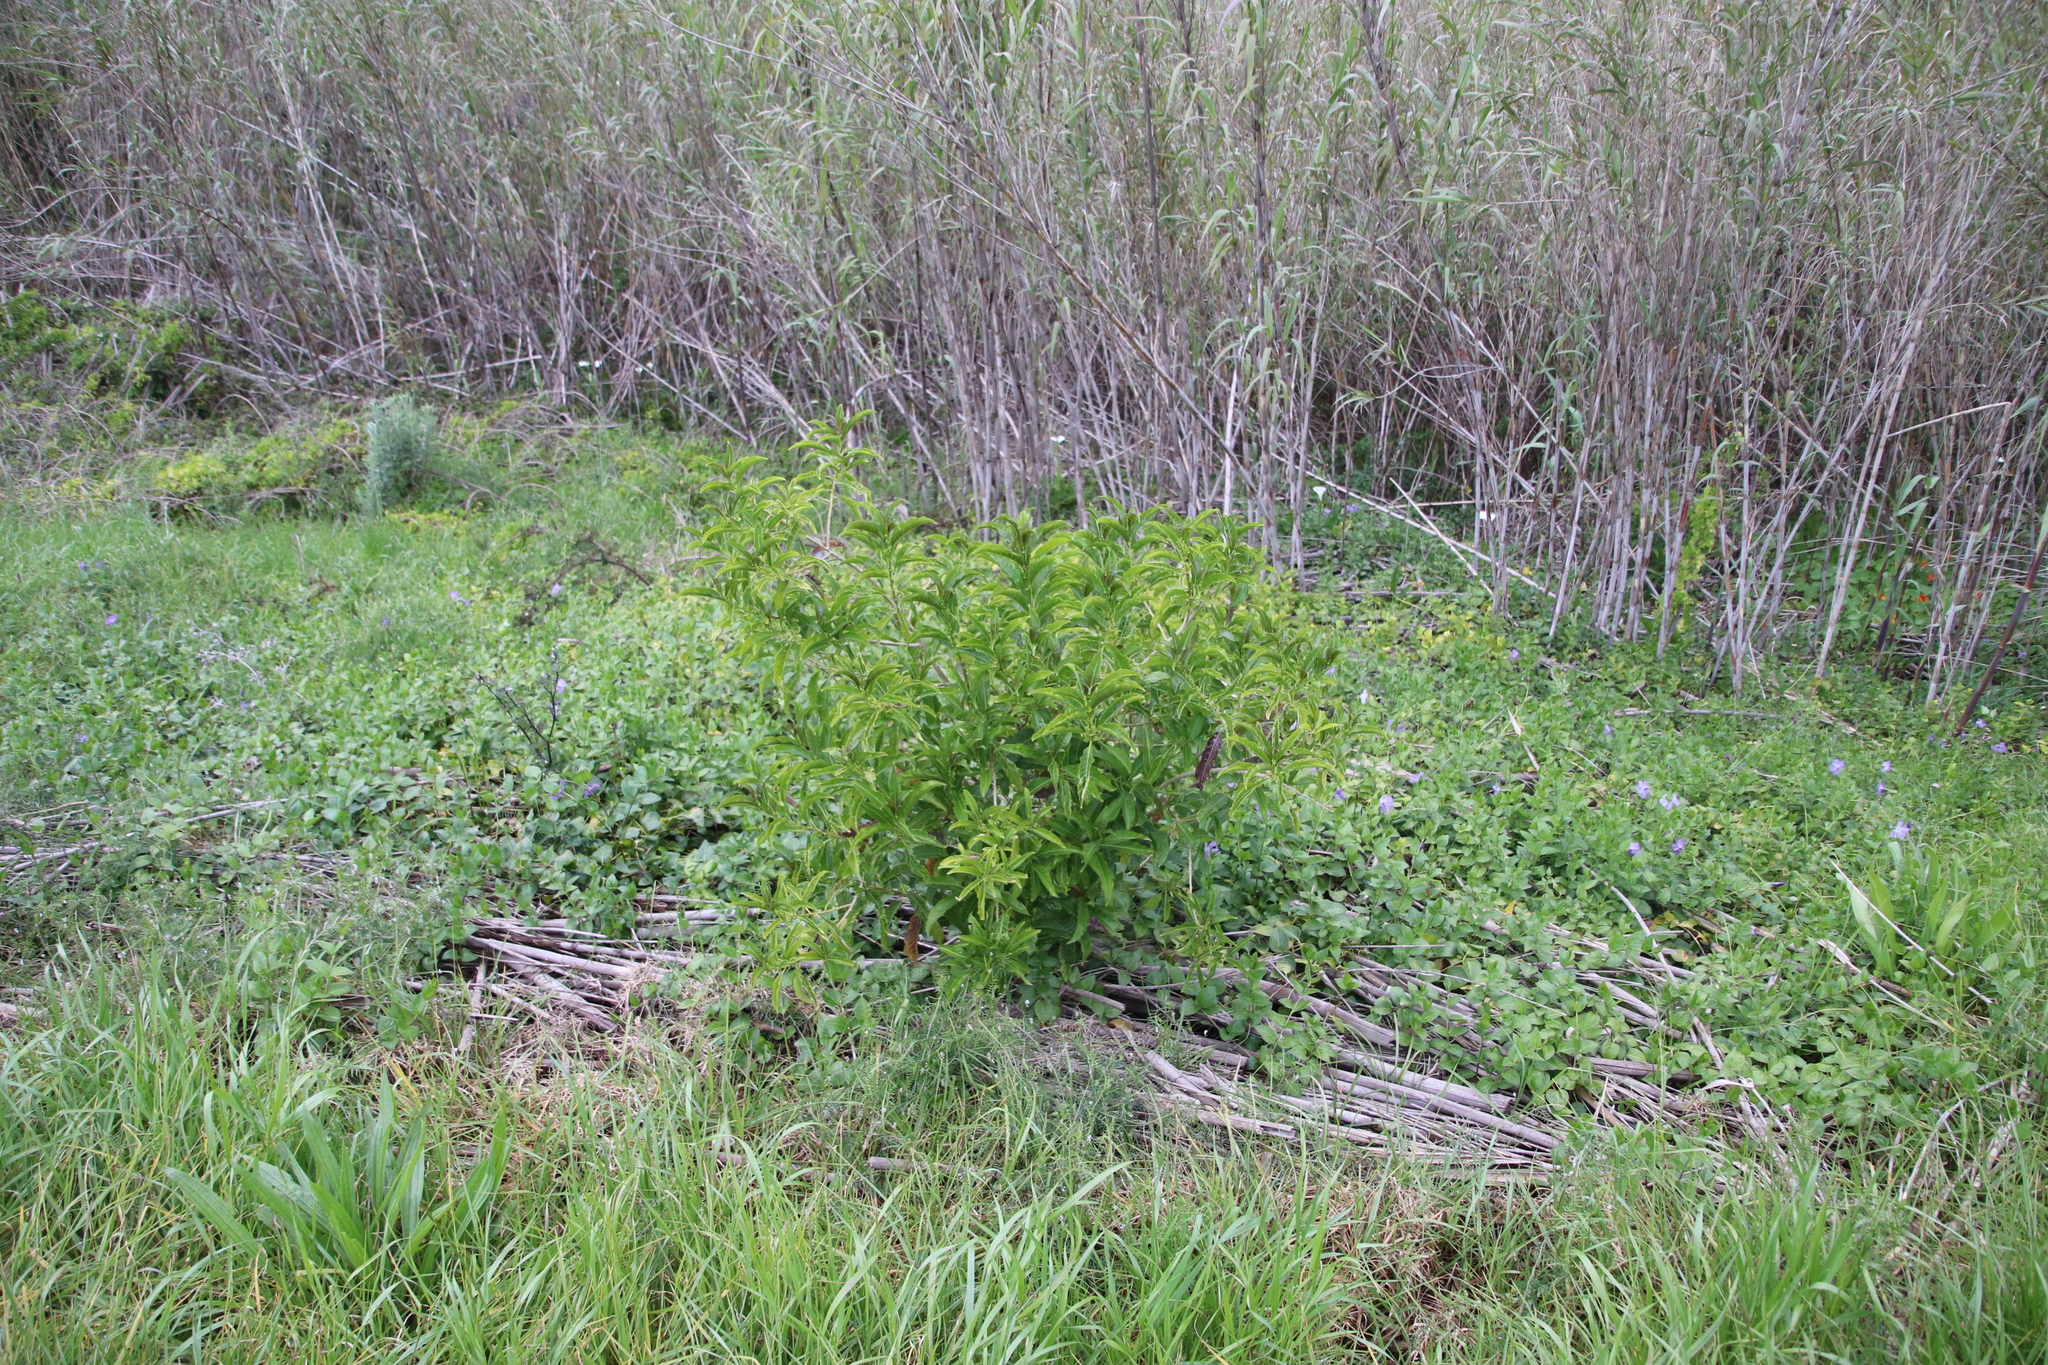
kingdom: Plantae
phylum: Tracheophyta
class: Magnoliopsida
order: Solanales
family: Solanaceae
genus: Cestrum
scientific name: Cestrum laevigatum
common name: Inkberry
